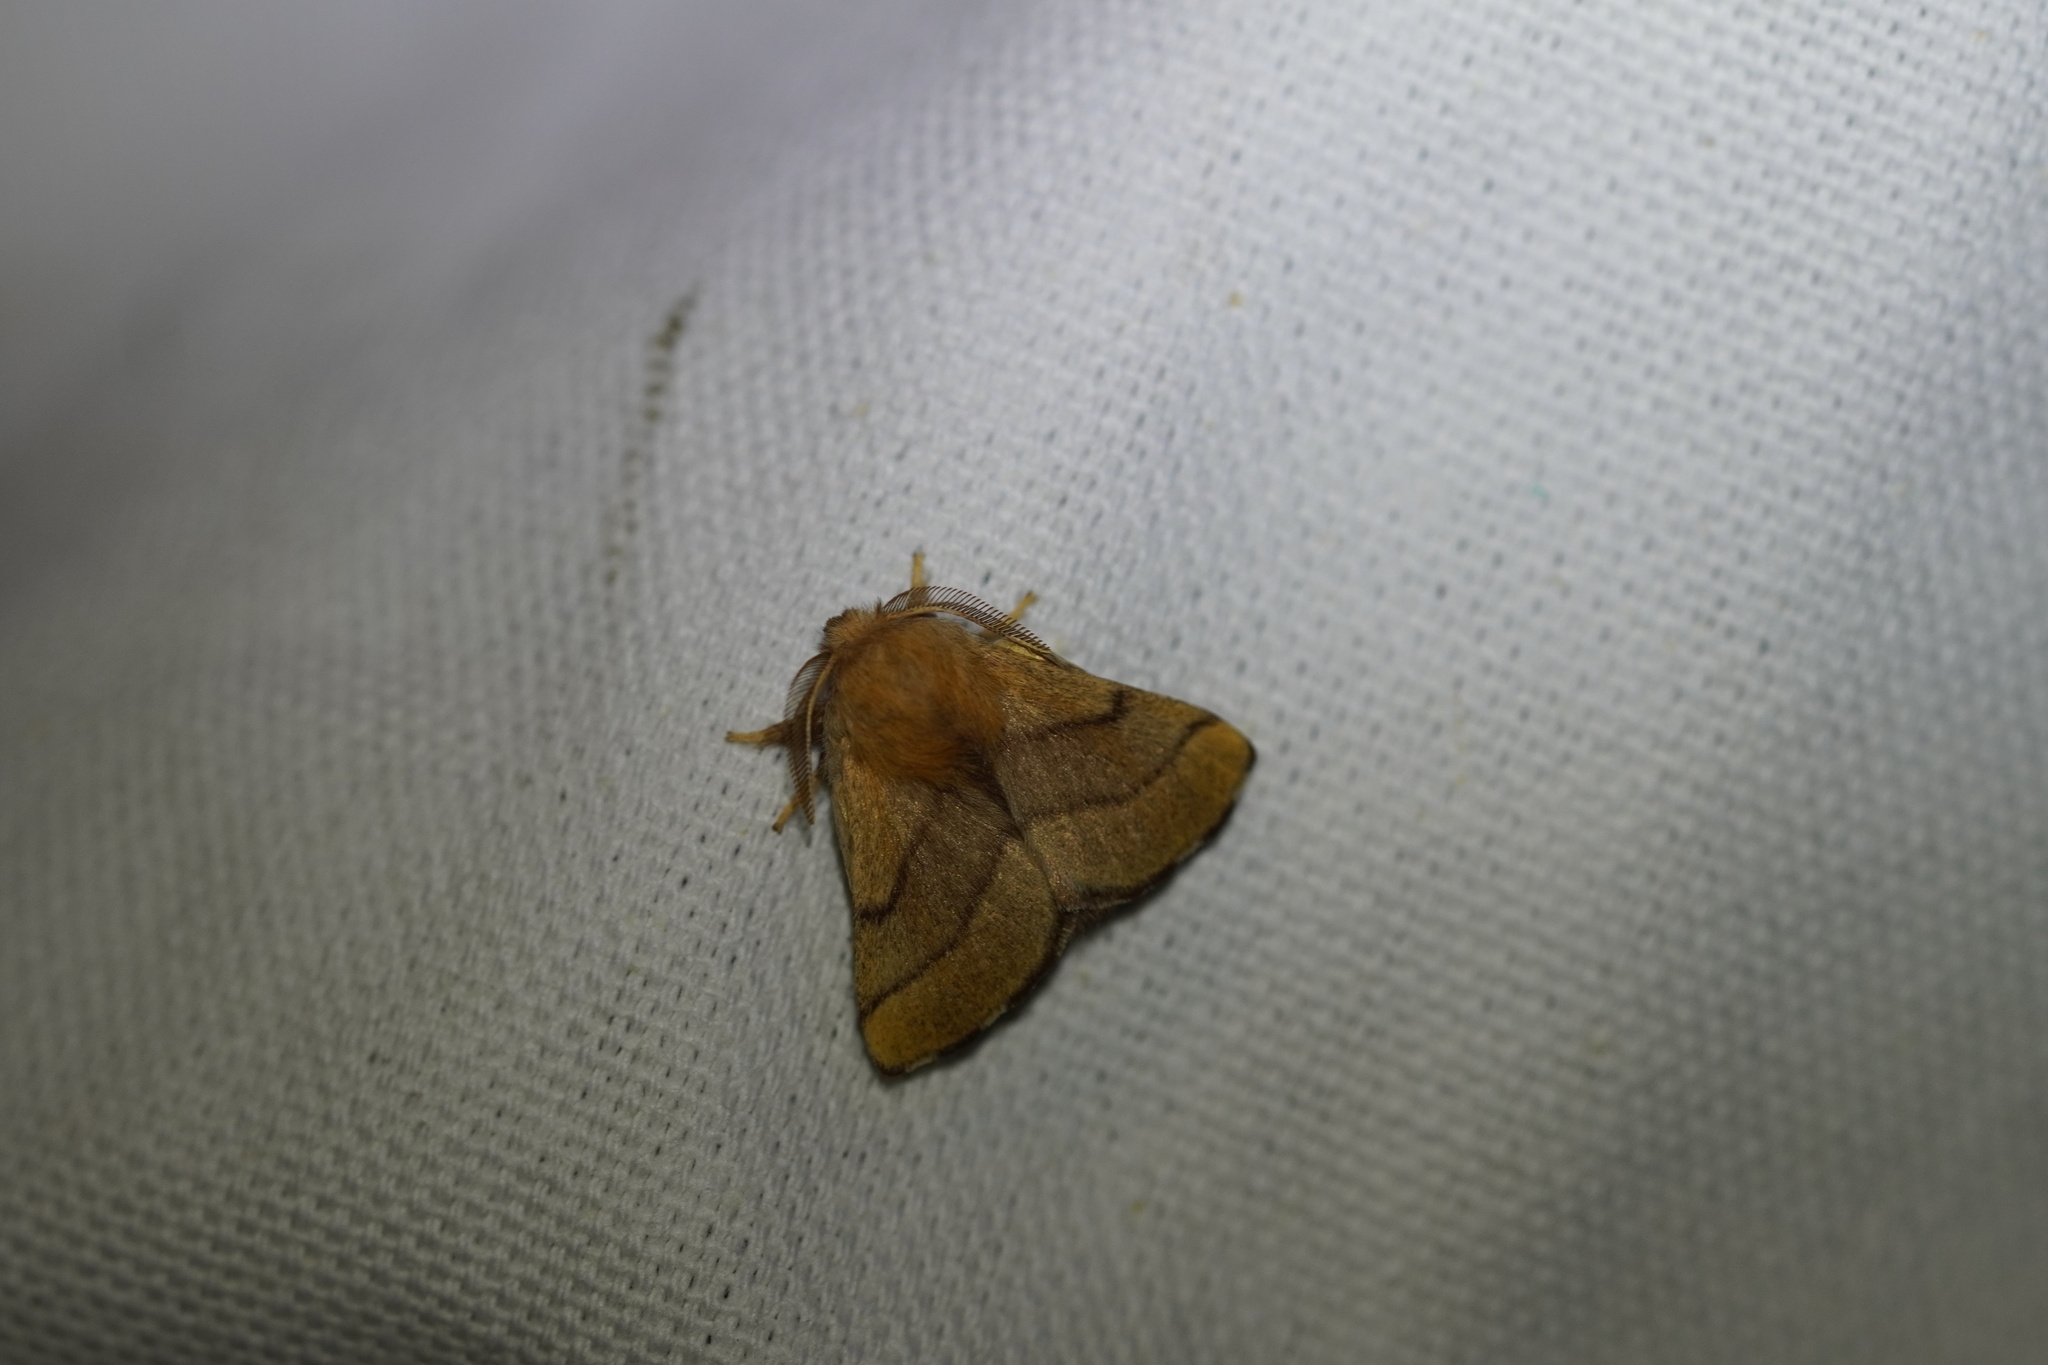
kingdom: Animalia
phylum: Arthropoda
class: Insecta
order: Lepidoptera
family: Lasiocampidae
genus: Malacosoma
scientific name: Malacosoma disstria
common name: Forest tent caterpillar
